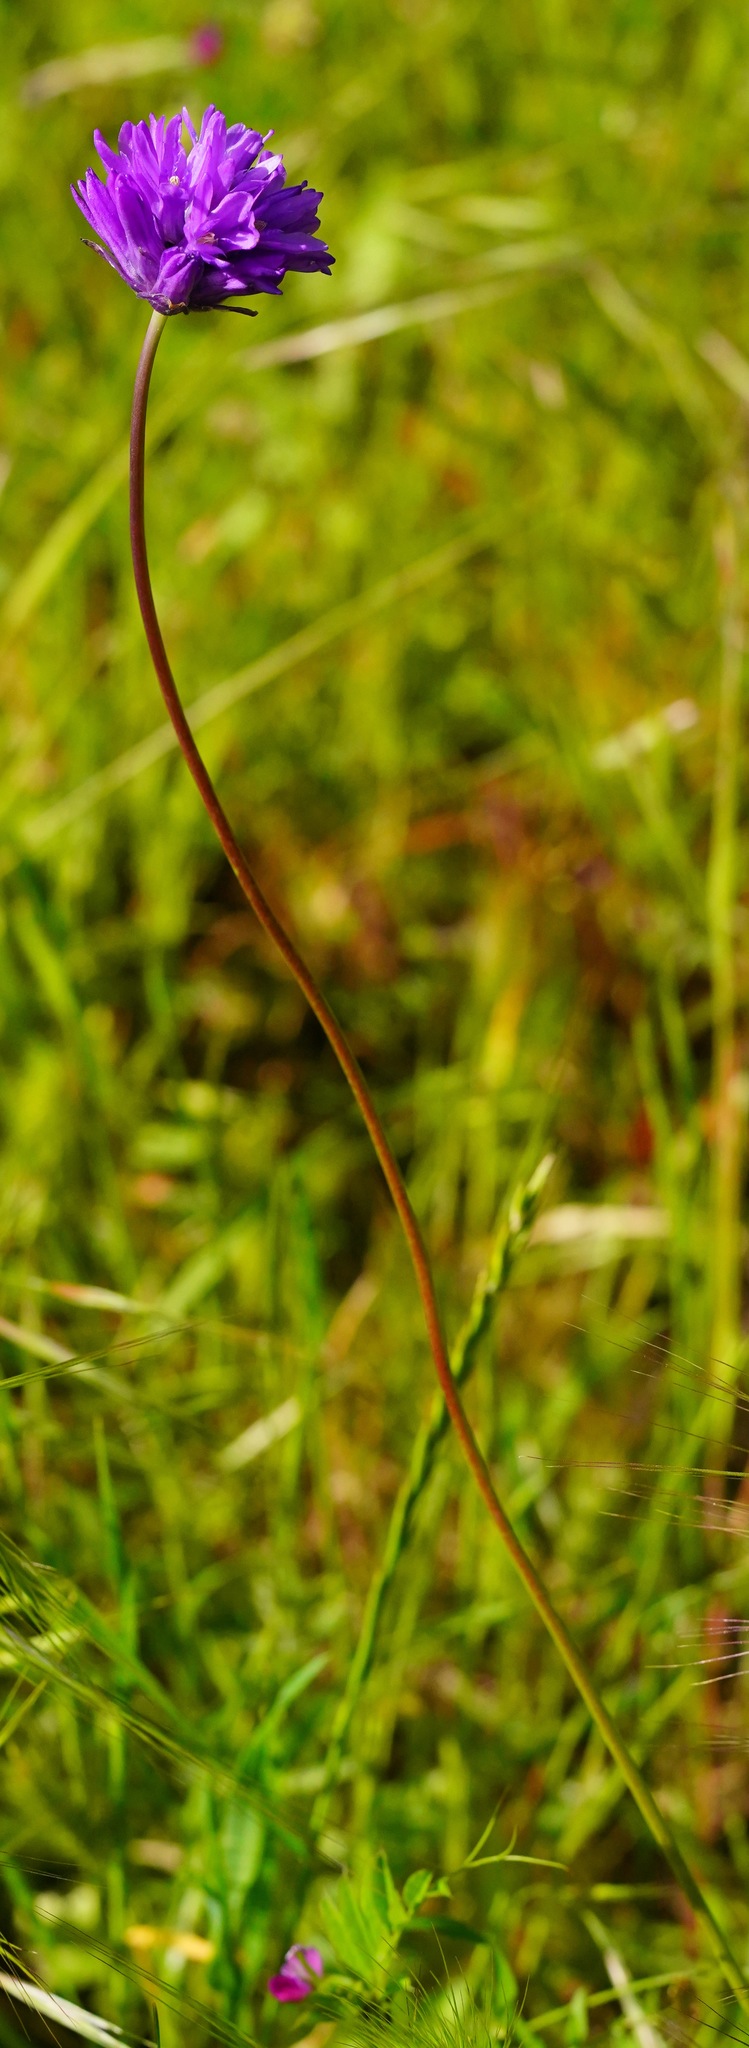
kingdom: Plantae
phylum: Tracheophyta
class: Liliopsida
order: Asparagales
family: Asparagaceae
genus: Dichelostemma
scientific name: Dichelostemma congestum
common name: Fork-tooth ookow
